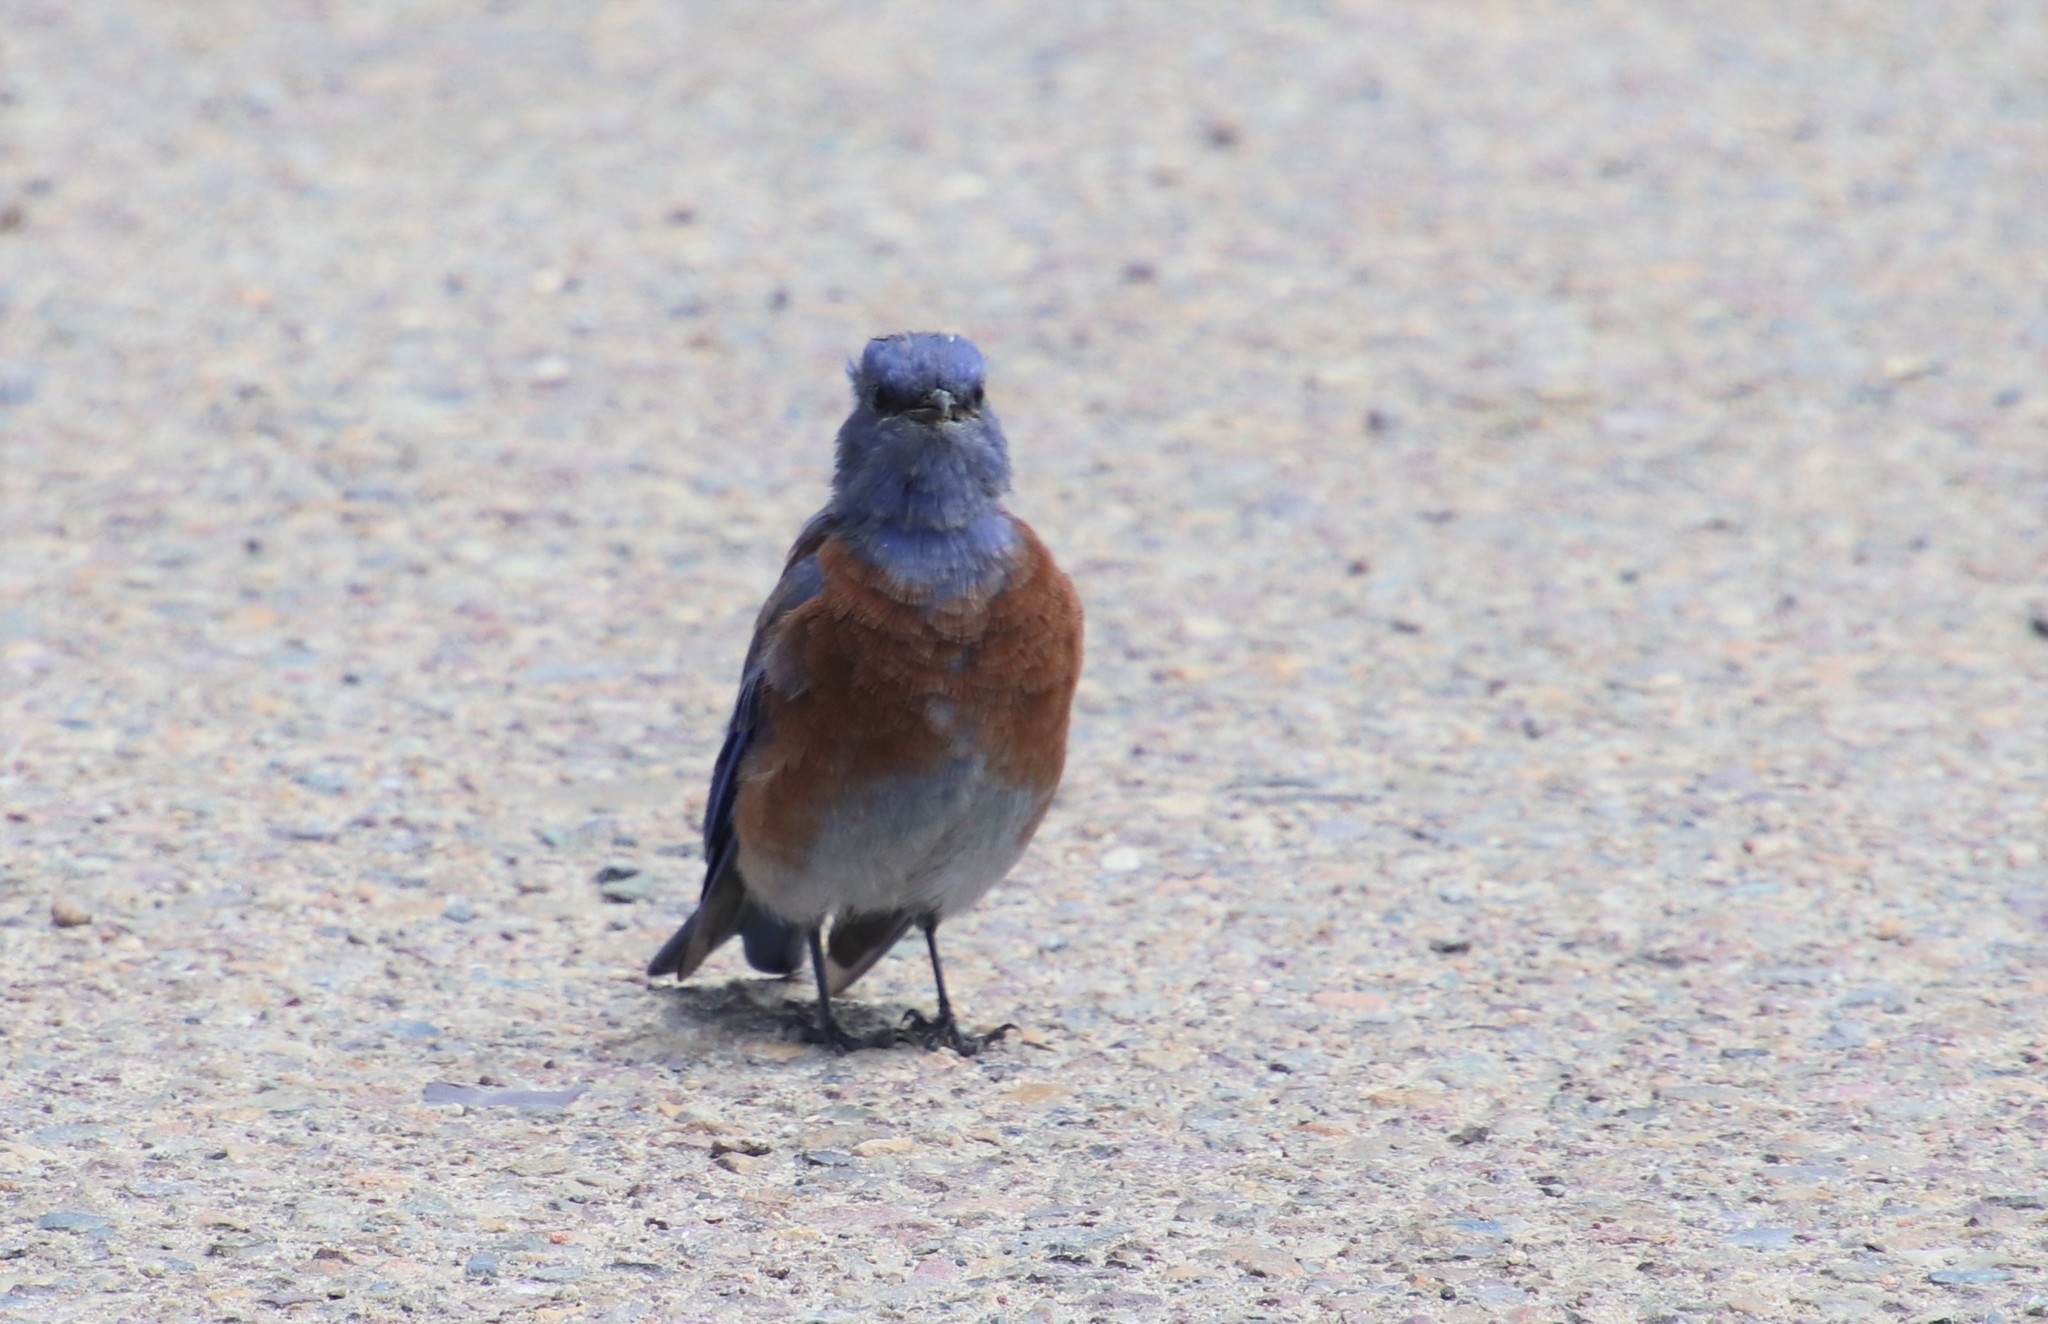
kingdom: Animalia
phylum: Chordata
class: Aves
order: Passeriformes
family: Turdidae
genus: Sialia
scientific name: Sialia mexicana
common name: Western bluebird
